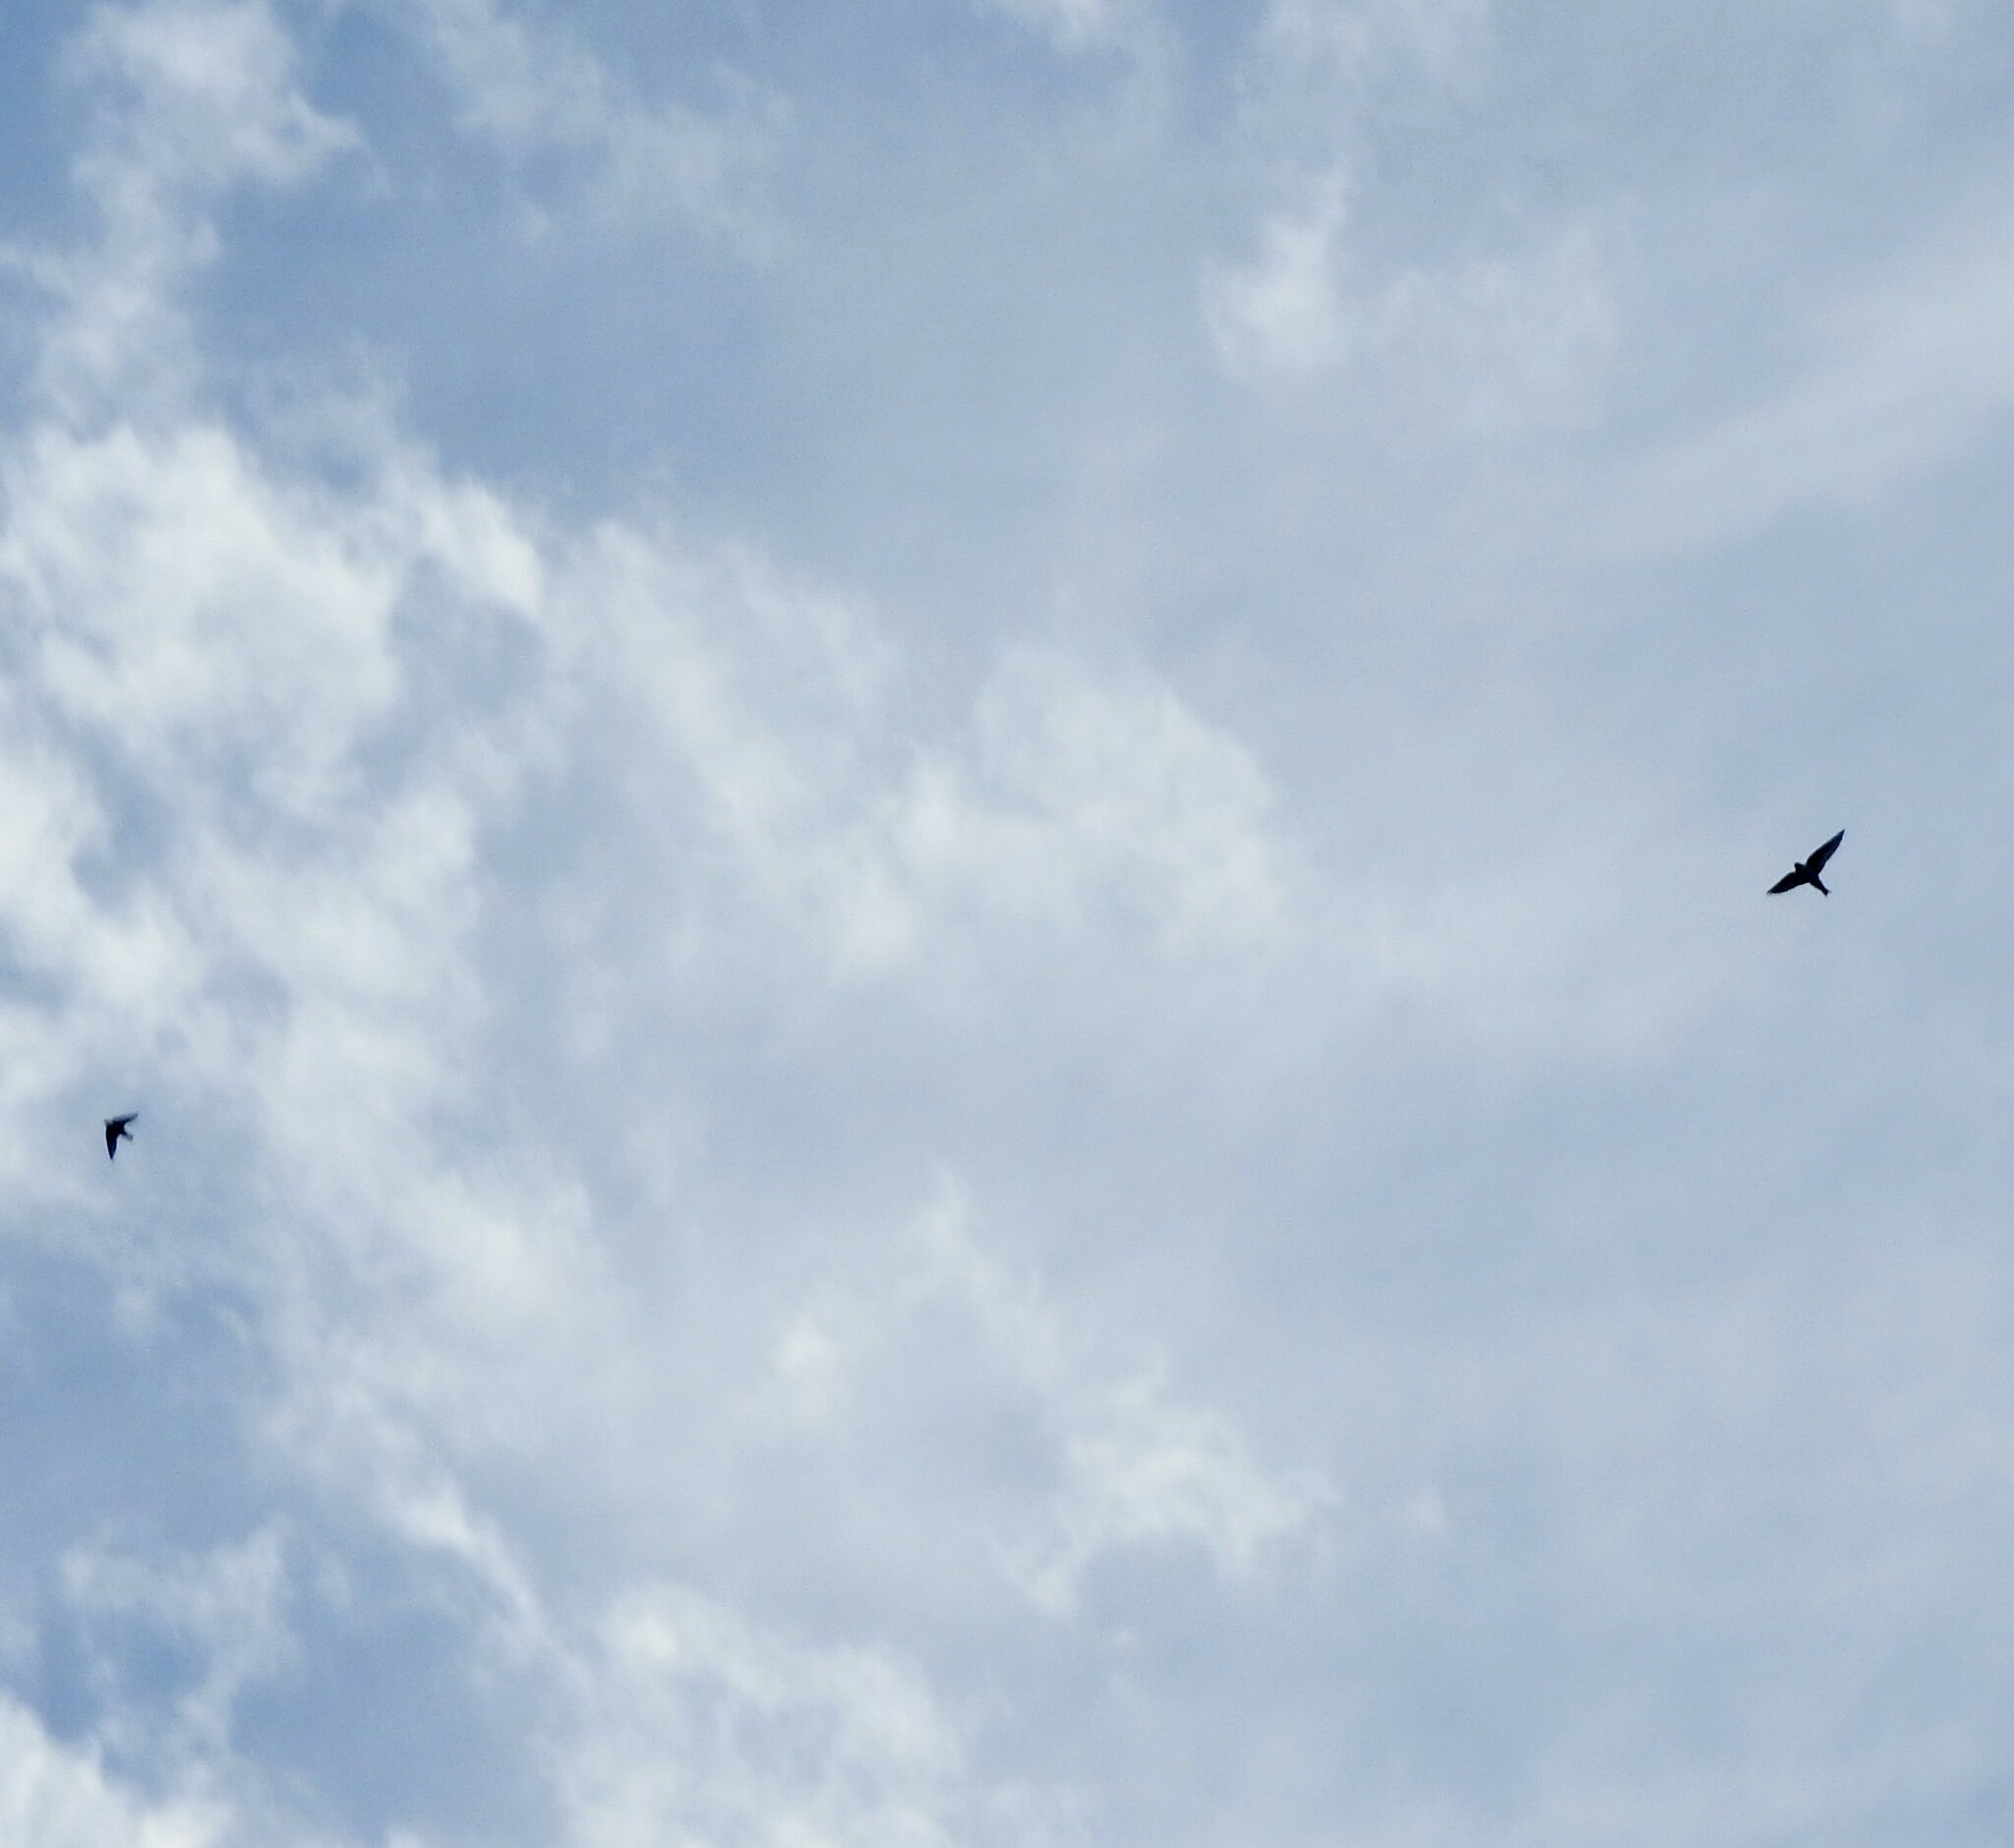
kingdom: Animalia
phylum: Chordata
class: Aves
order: Apodiformes
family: Apodidae
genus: Aeronautes
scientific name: Aeronautes saxatalis
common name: White-throated swift
